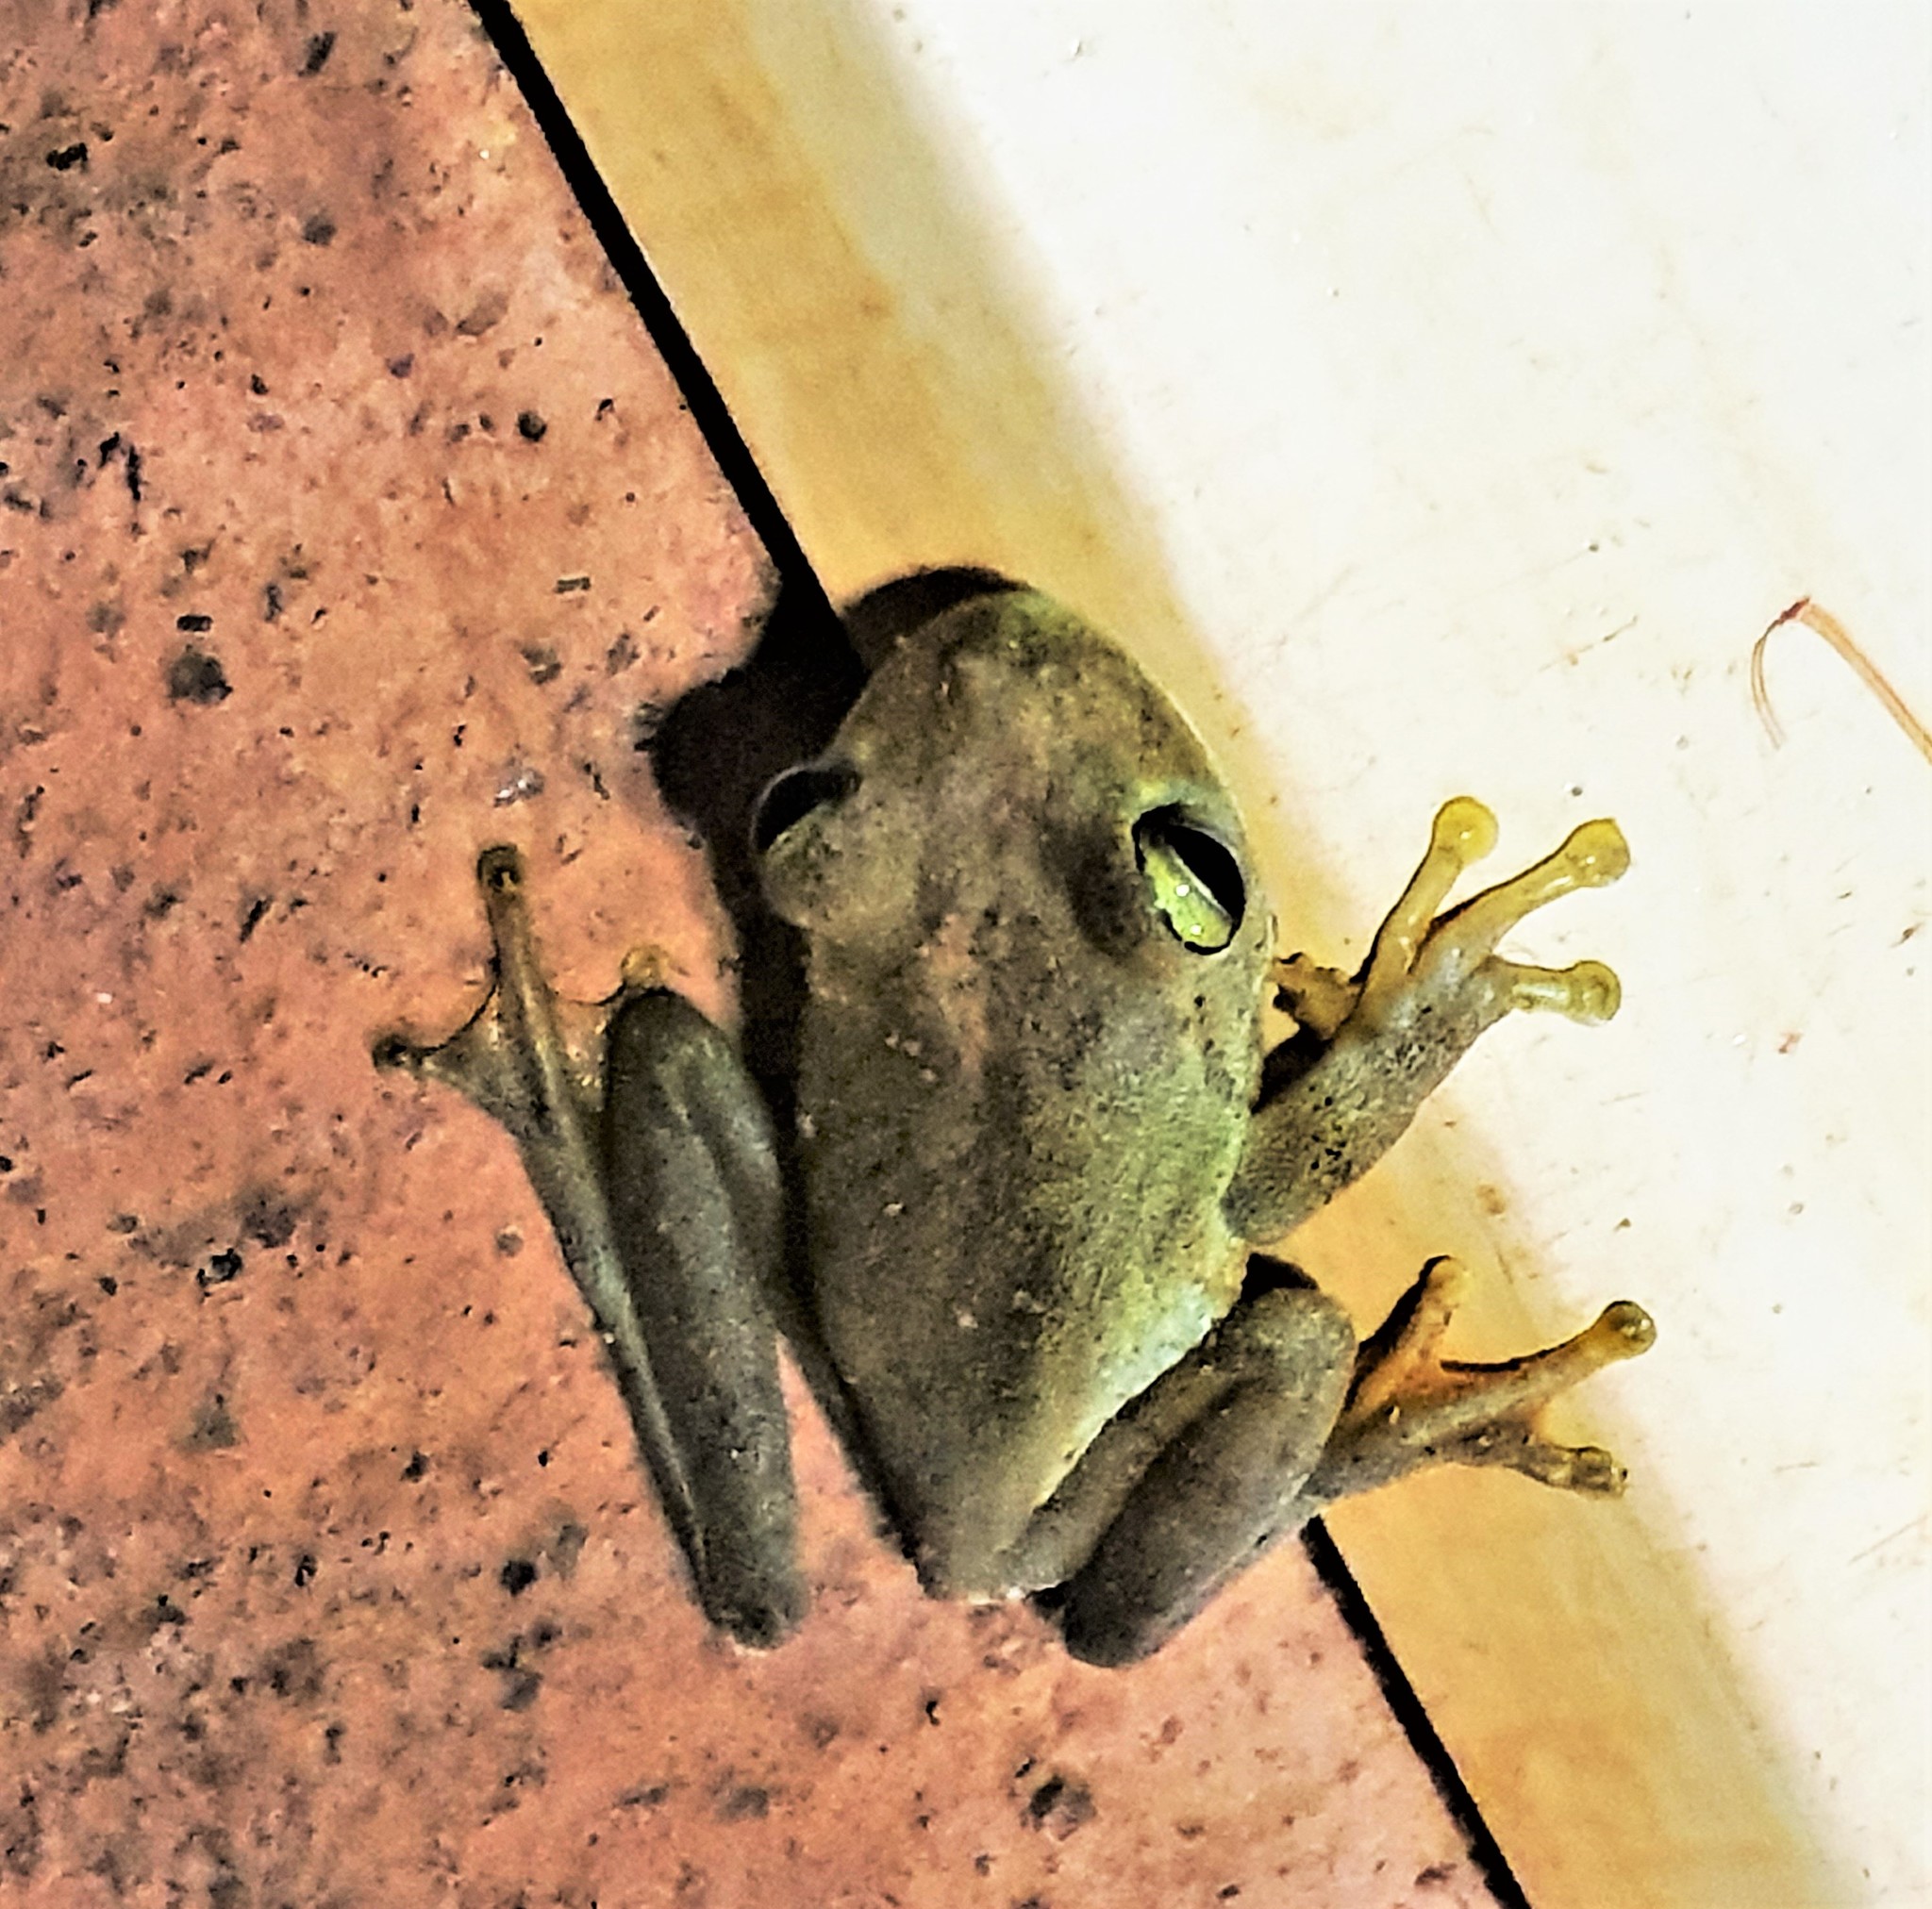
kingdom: Animalia
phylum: Chordata
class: Amphibia
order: Anura
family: Hylidae
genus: Boana
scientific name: Boana xerophylla
